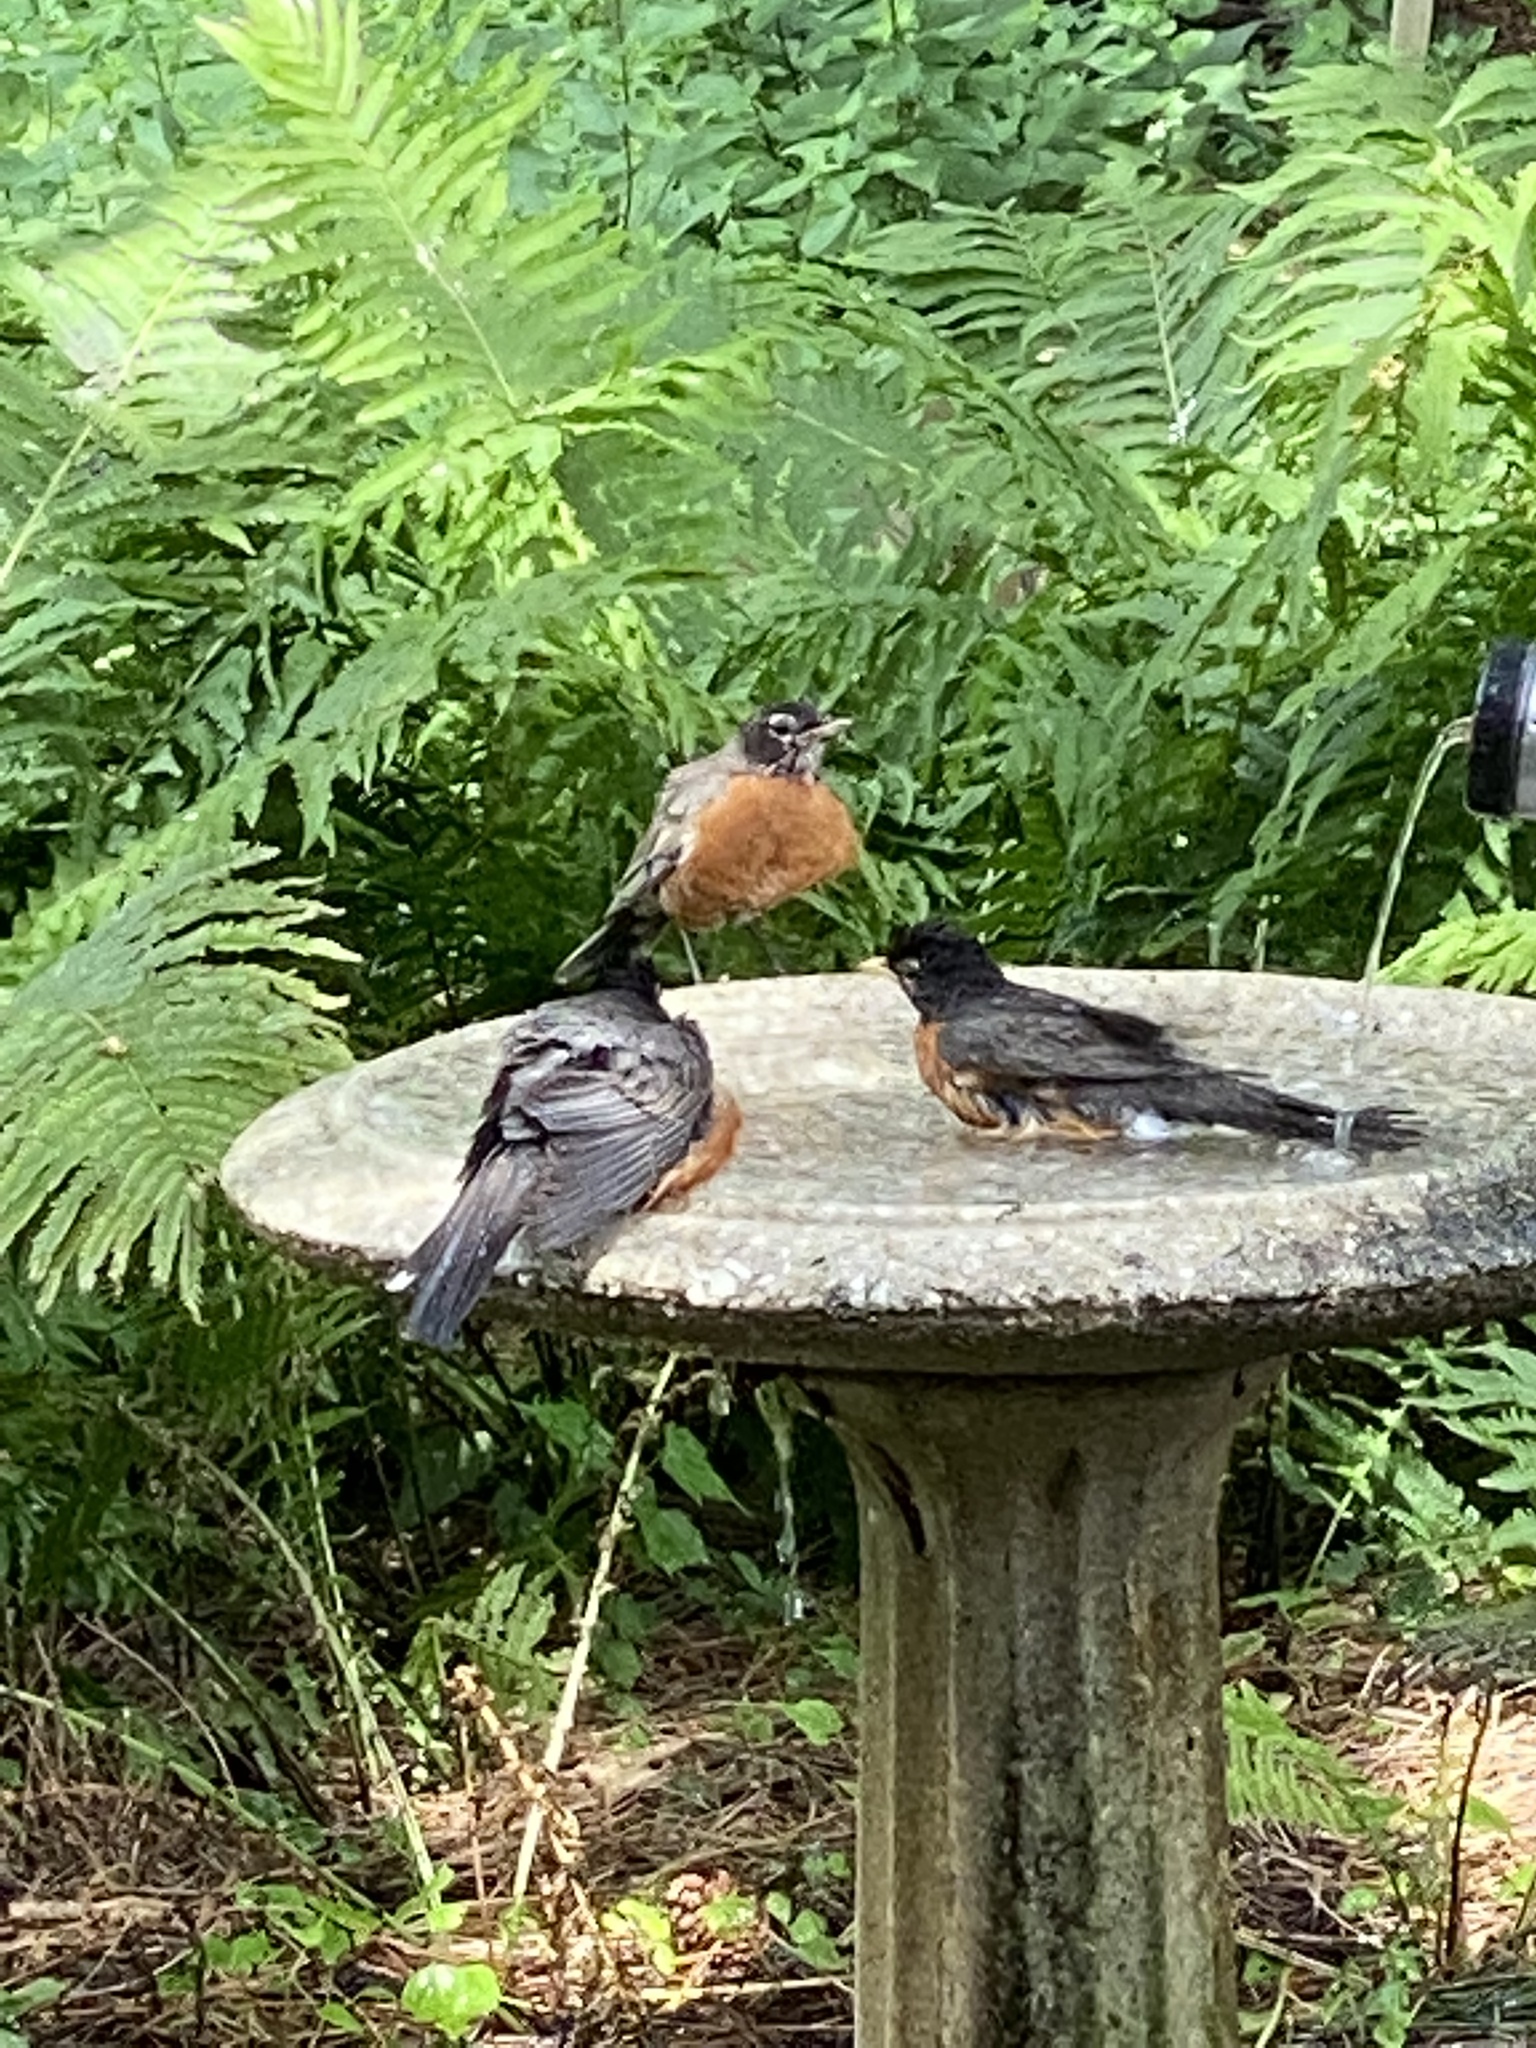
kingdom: Animalia
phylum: Chordata
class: Aves
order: Passeriformes
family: Turdidae
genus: Turdus
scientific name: Turdus migratorius
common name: American robin
